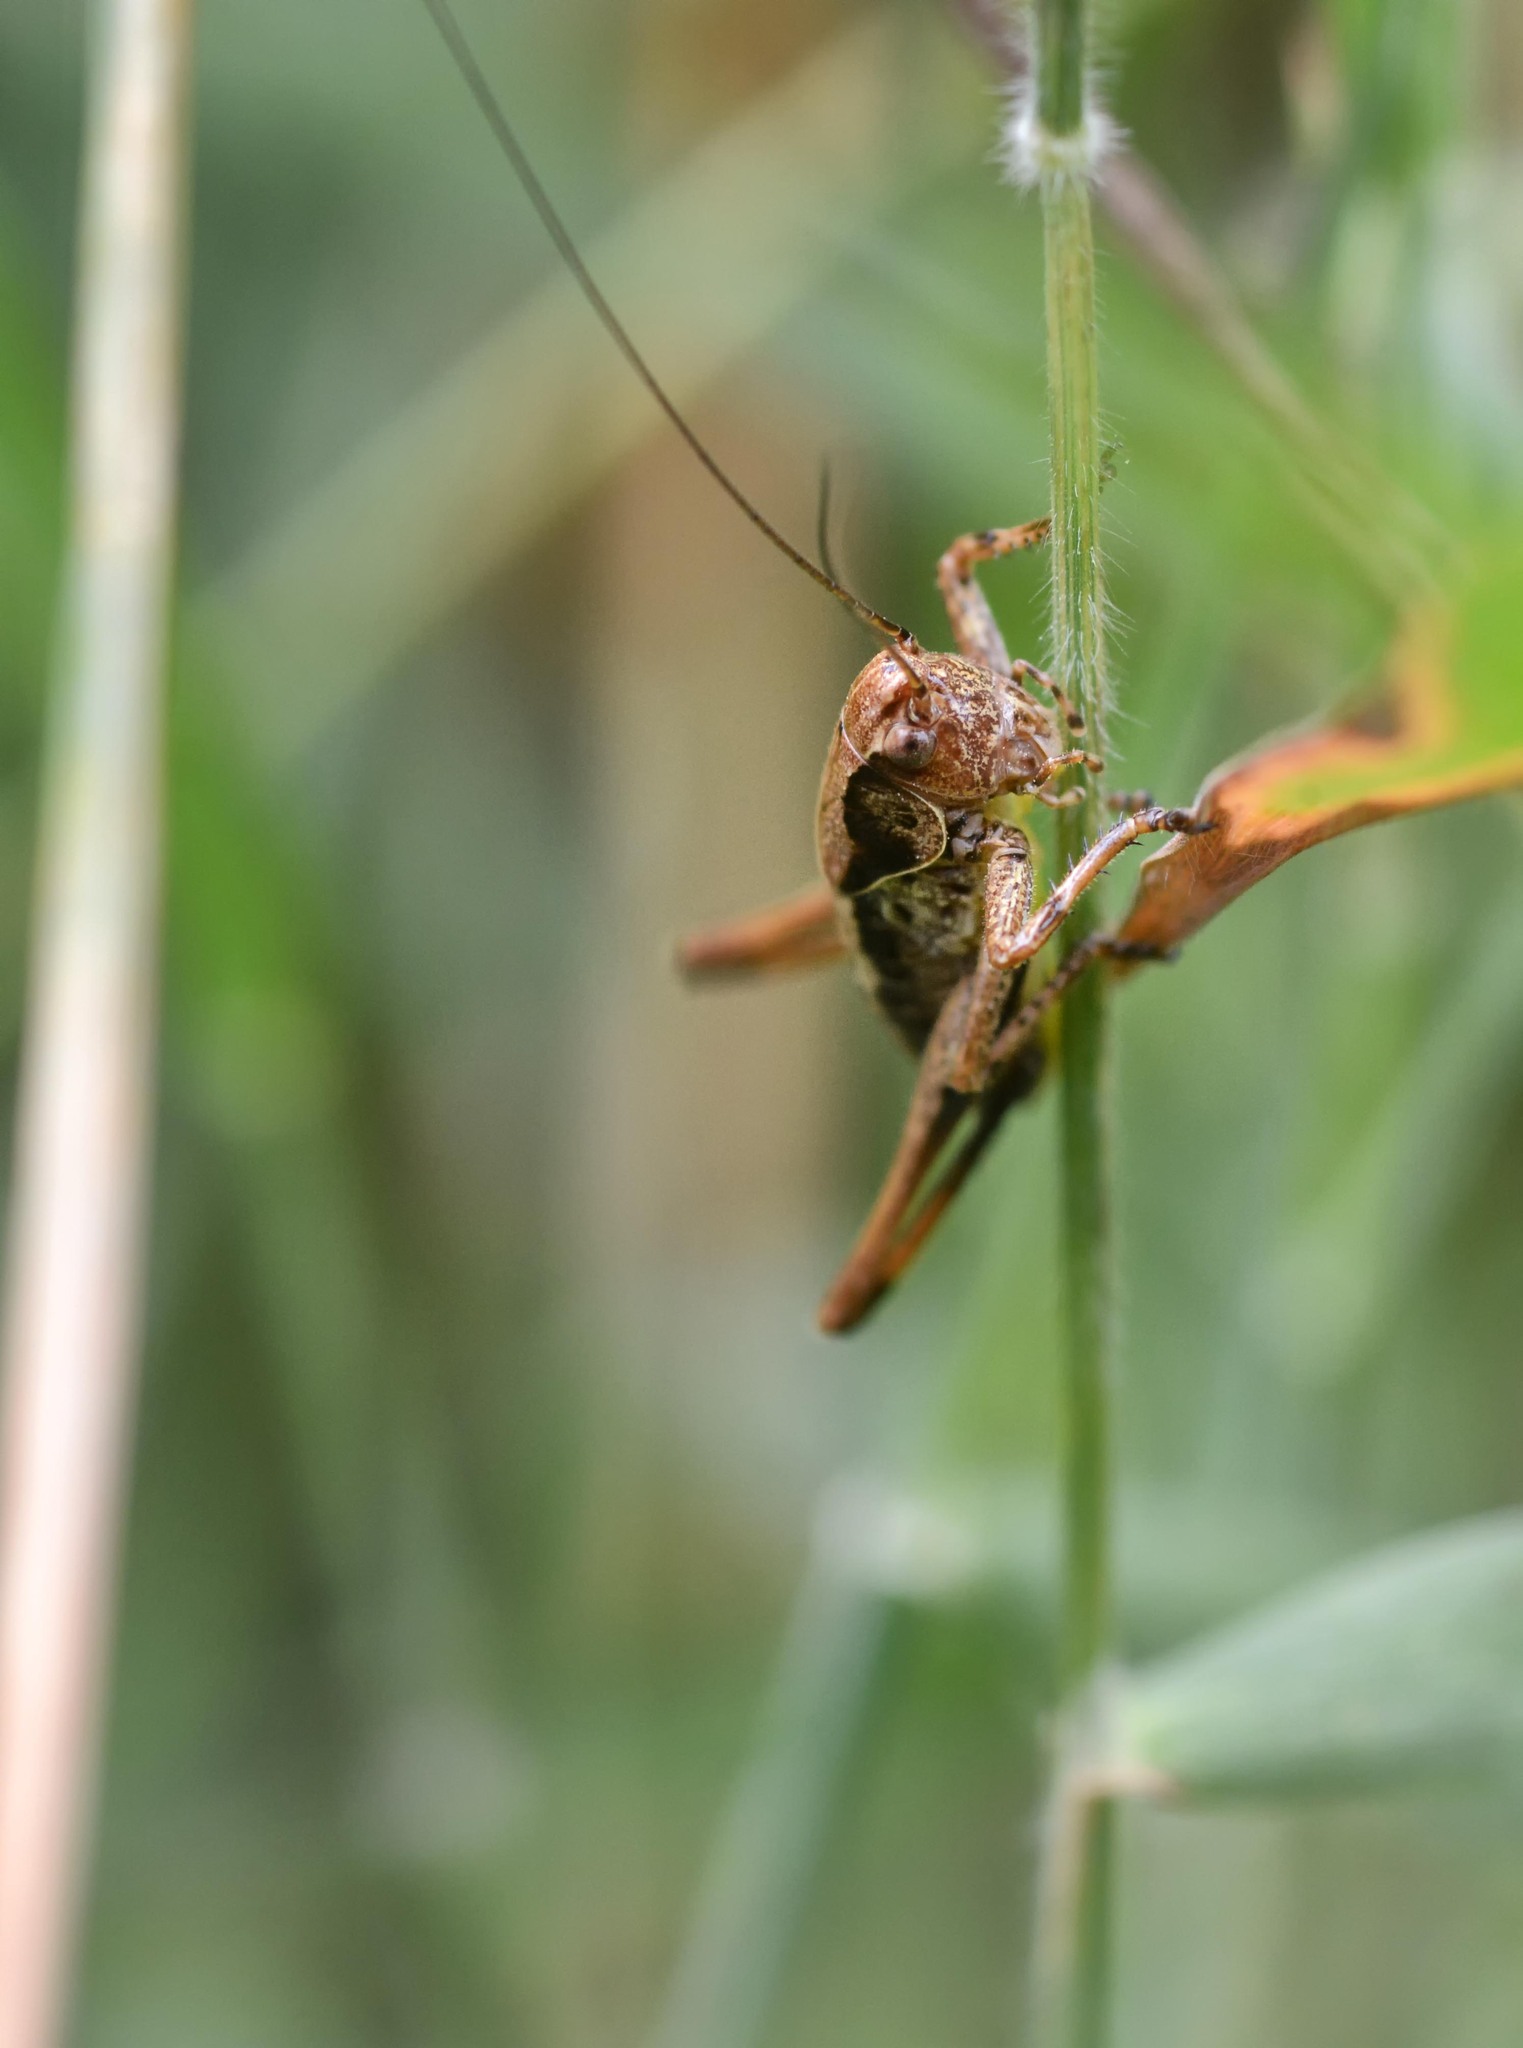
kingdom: Animalia
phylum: Arthropoda
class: Insecta
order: Orthoptera
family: Tettigoniidae
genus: Pholidoptera
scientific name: Pholidoptera griseoaptera
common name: Dark bush-cricket
